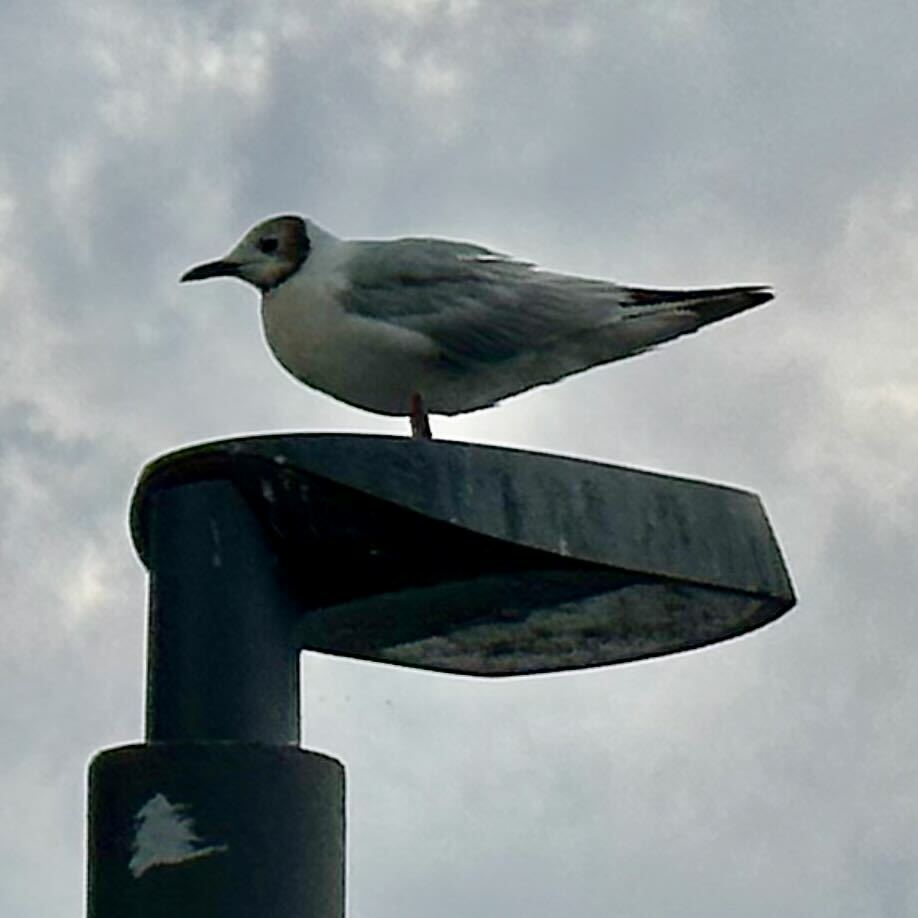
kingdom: Animalia
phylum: Chordata
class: Aves
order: Charadriiformes
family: Laridae
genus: Chroicocephalus
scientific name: Chroicocephalus ridibundus
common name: Black-headed gull
